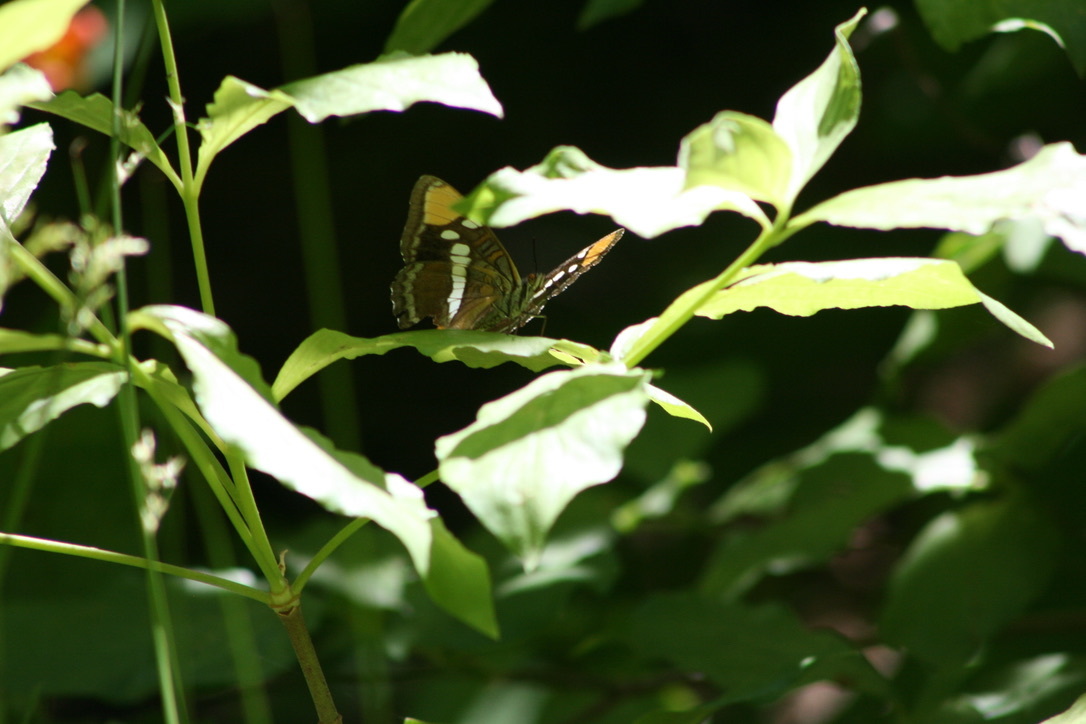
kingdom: Animalia
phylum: Arthropoda
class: Insecta
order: Lepidoptera
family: Nymphalidae
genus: Limenitis
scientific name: Limenitis bredowii
